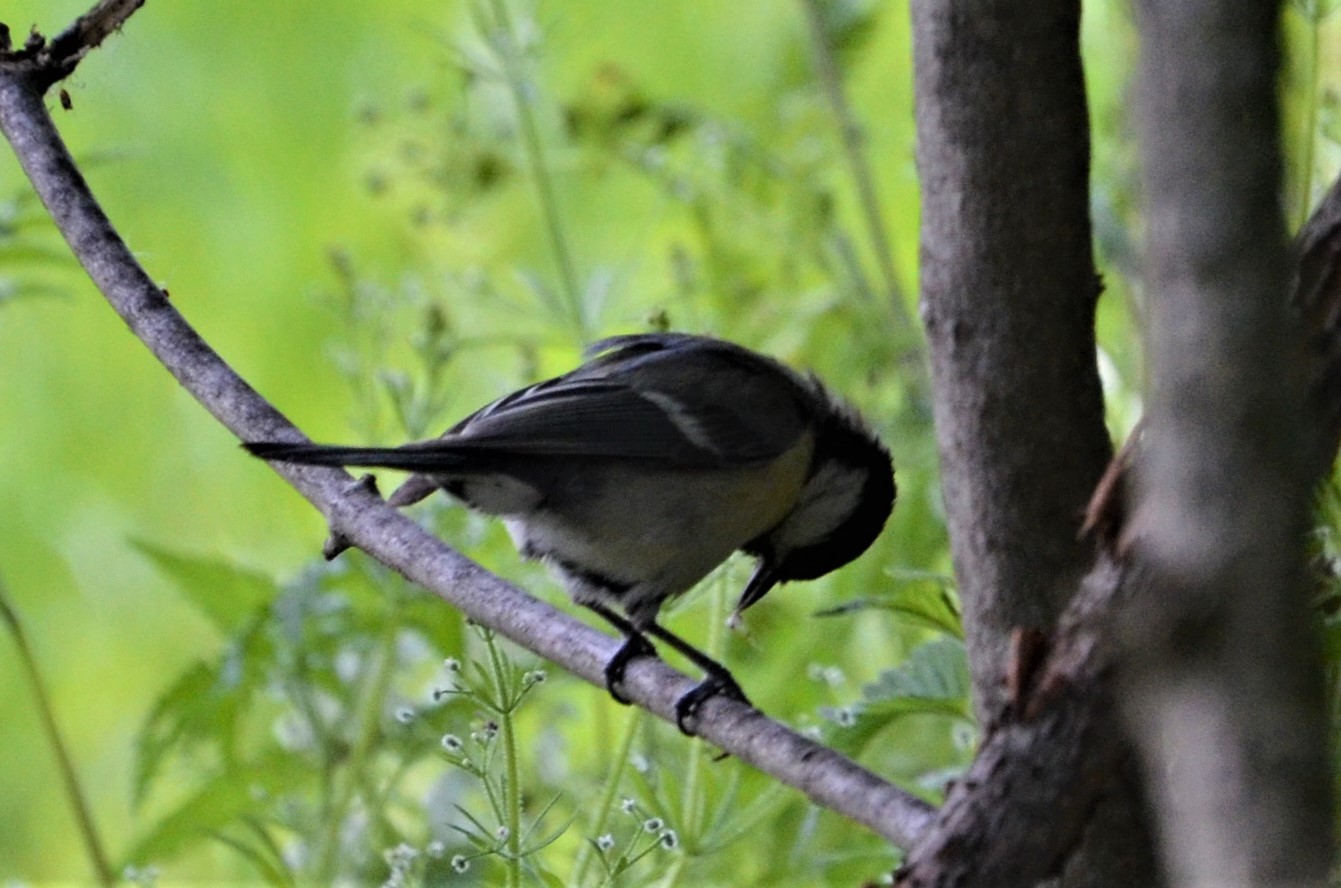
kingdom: Animalia
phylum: Chordata
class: Aves
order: Passeriformes
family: Paridae
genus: Parus
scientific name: Parus major
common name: Great tit
